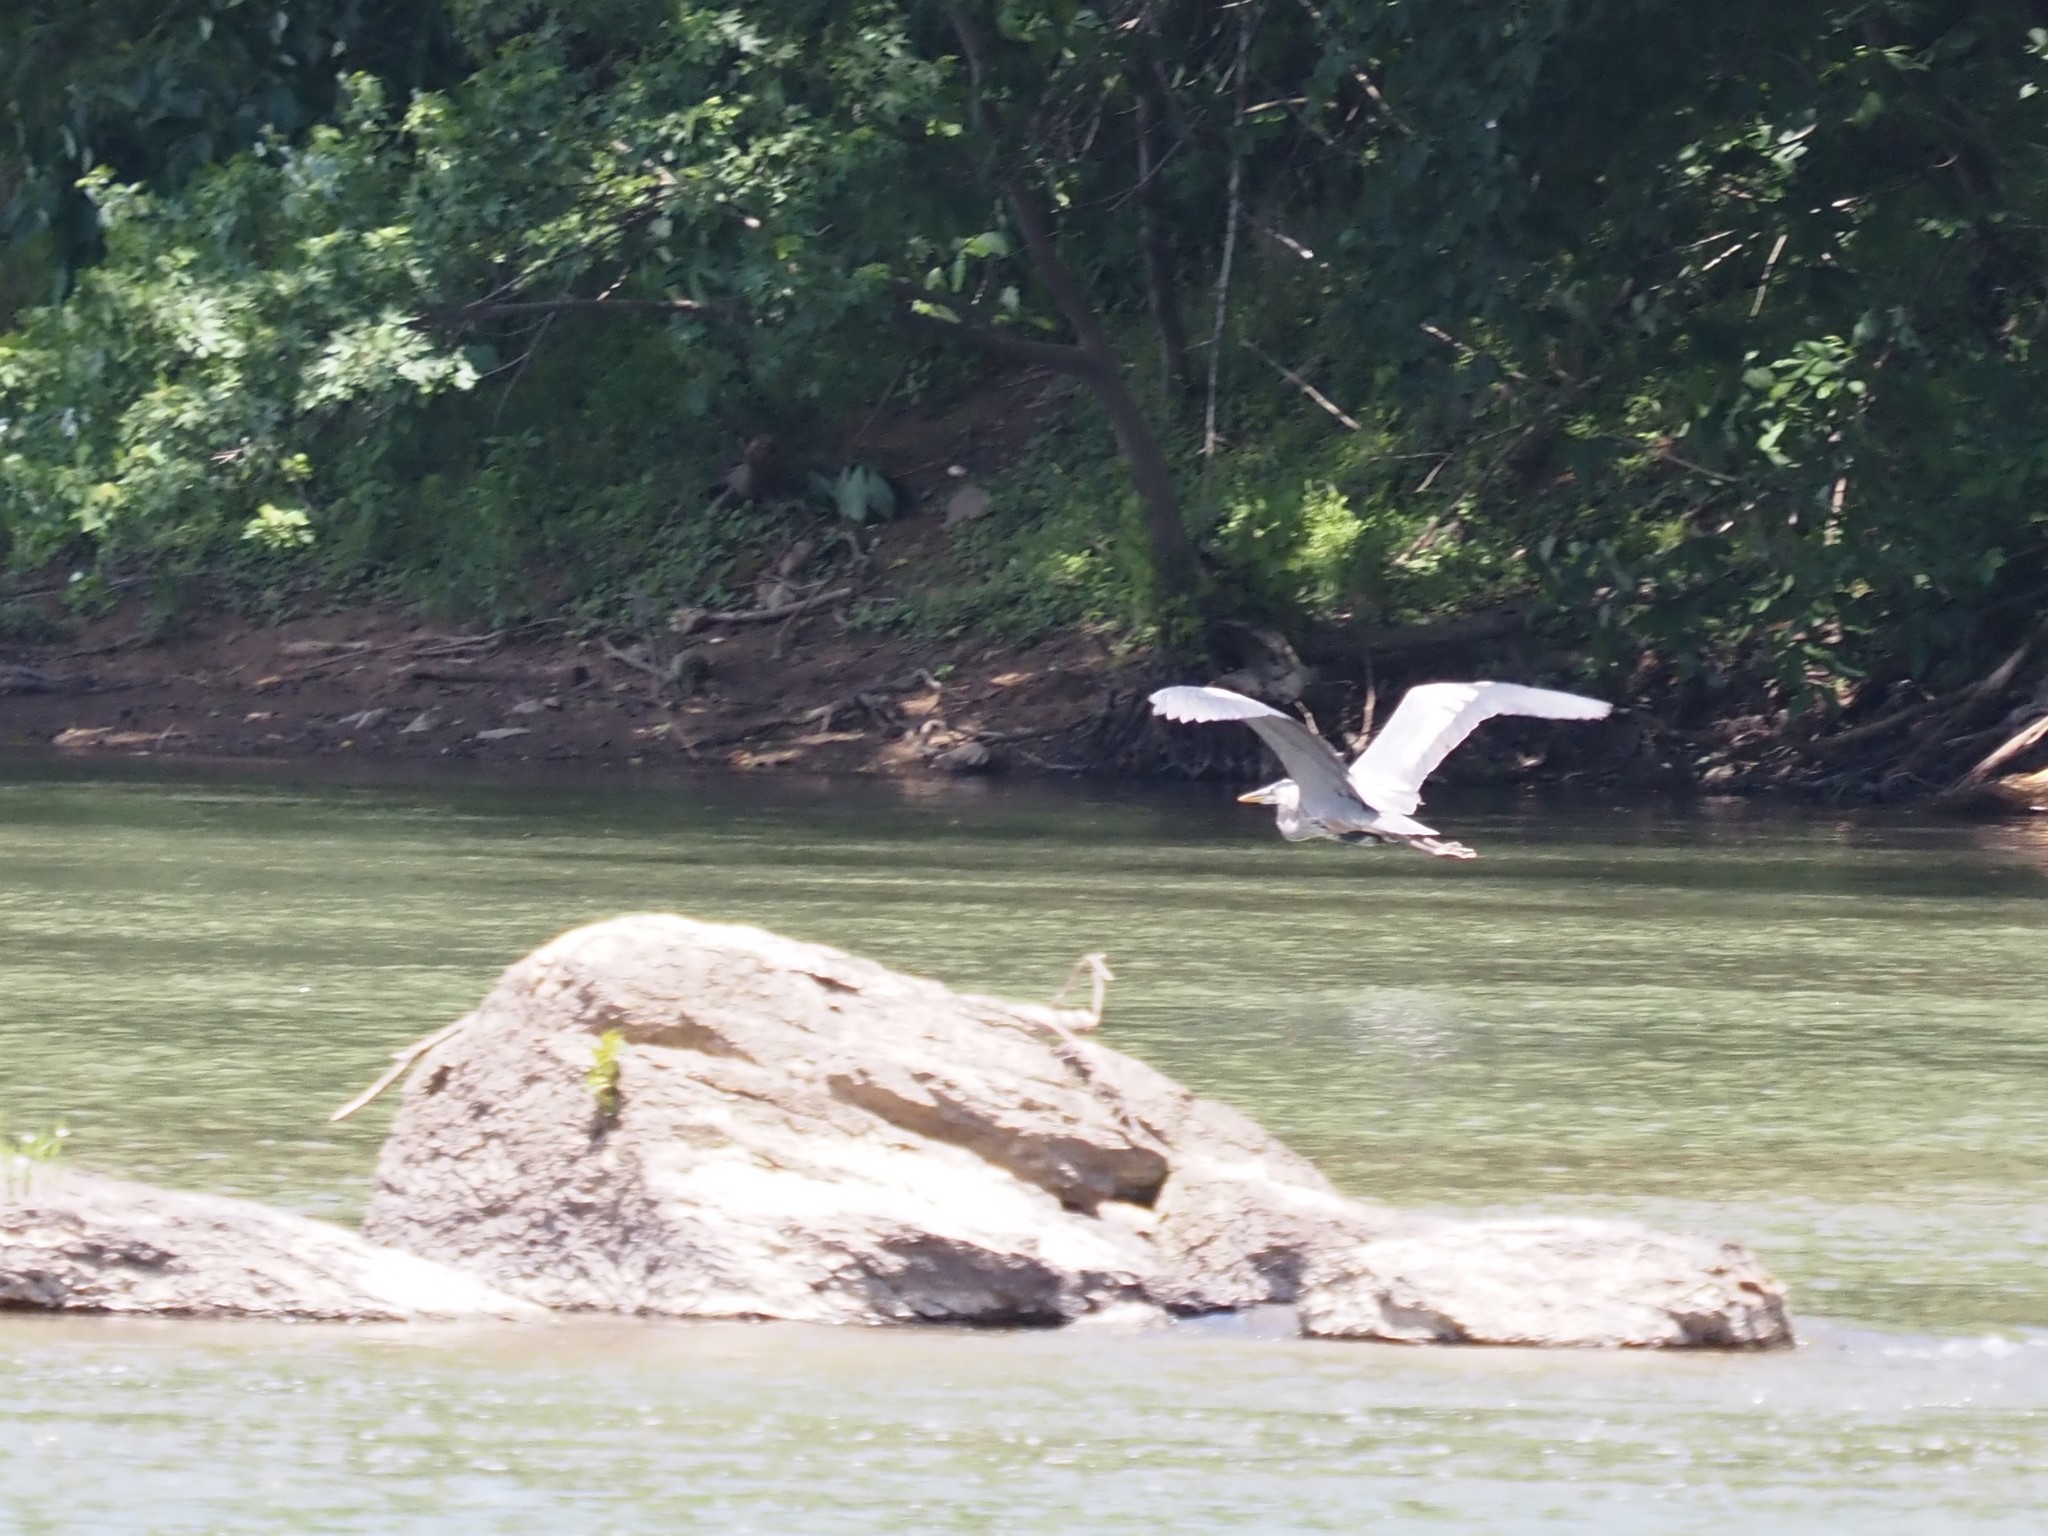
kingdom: Animalia
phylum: Chordata
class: Aves
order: Pelecaniformes
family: Ardeidae
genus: Ardea
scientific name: Ardea herodias
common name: Great blue heron
